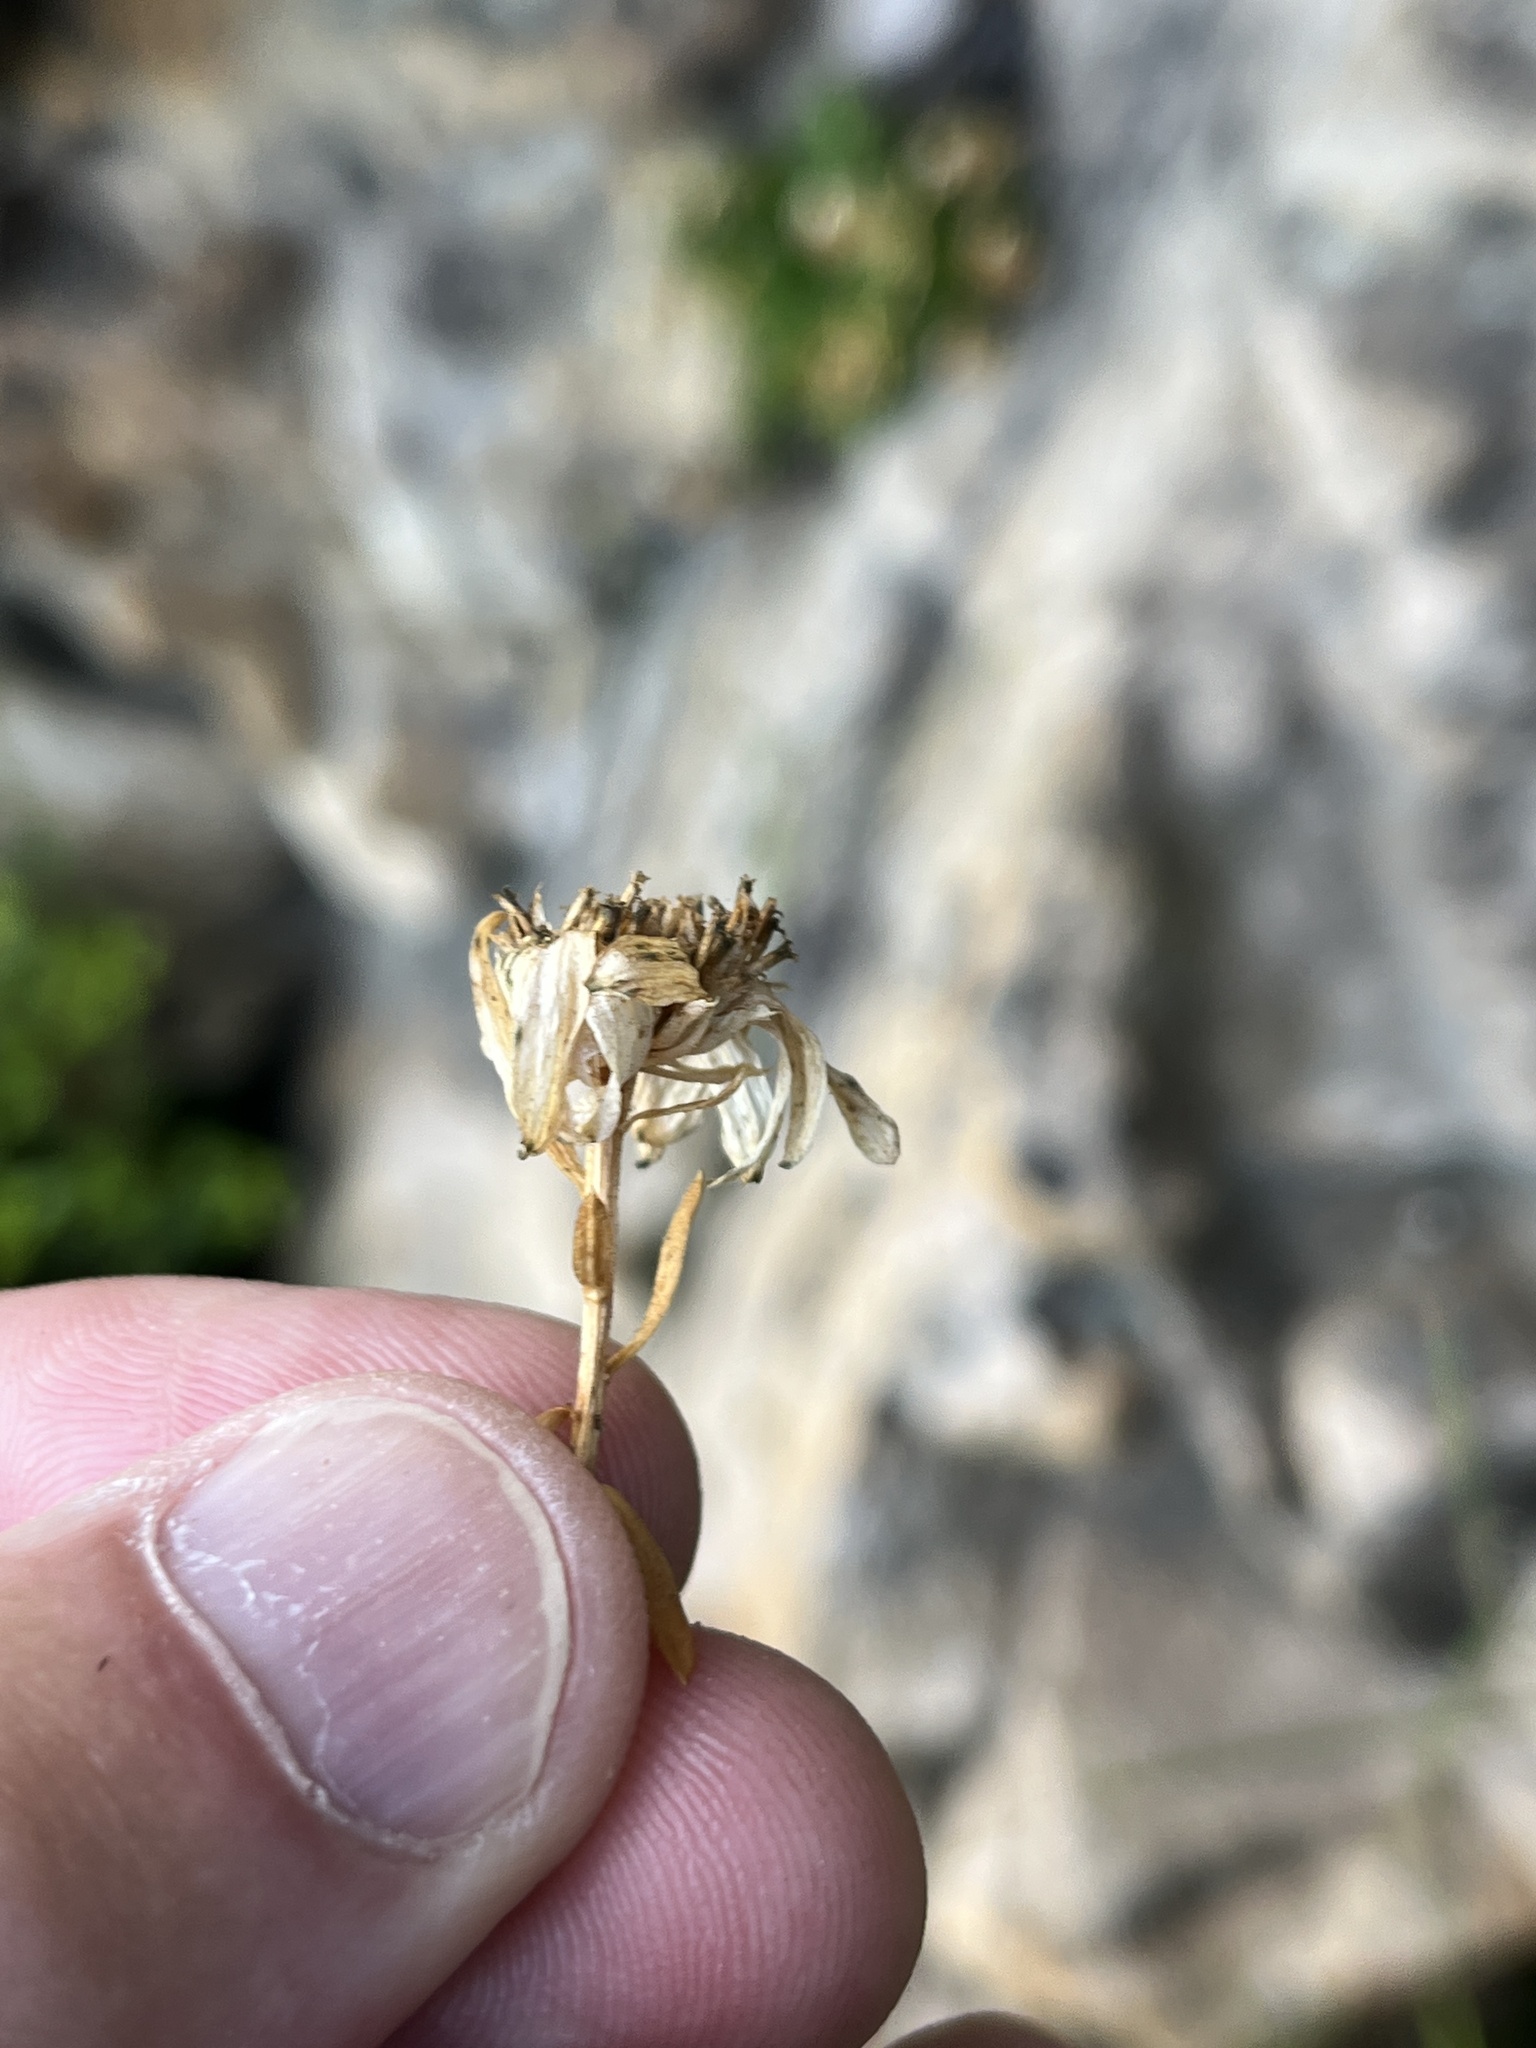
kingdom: Plantae
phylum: Tracheophyta
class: Magnoliopsida
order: Asterales
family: Asteraceae
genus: Osmitopsis
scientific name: Osmitopsis nana
